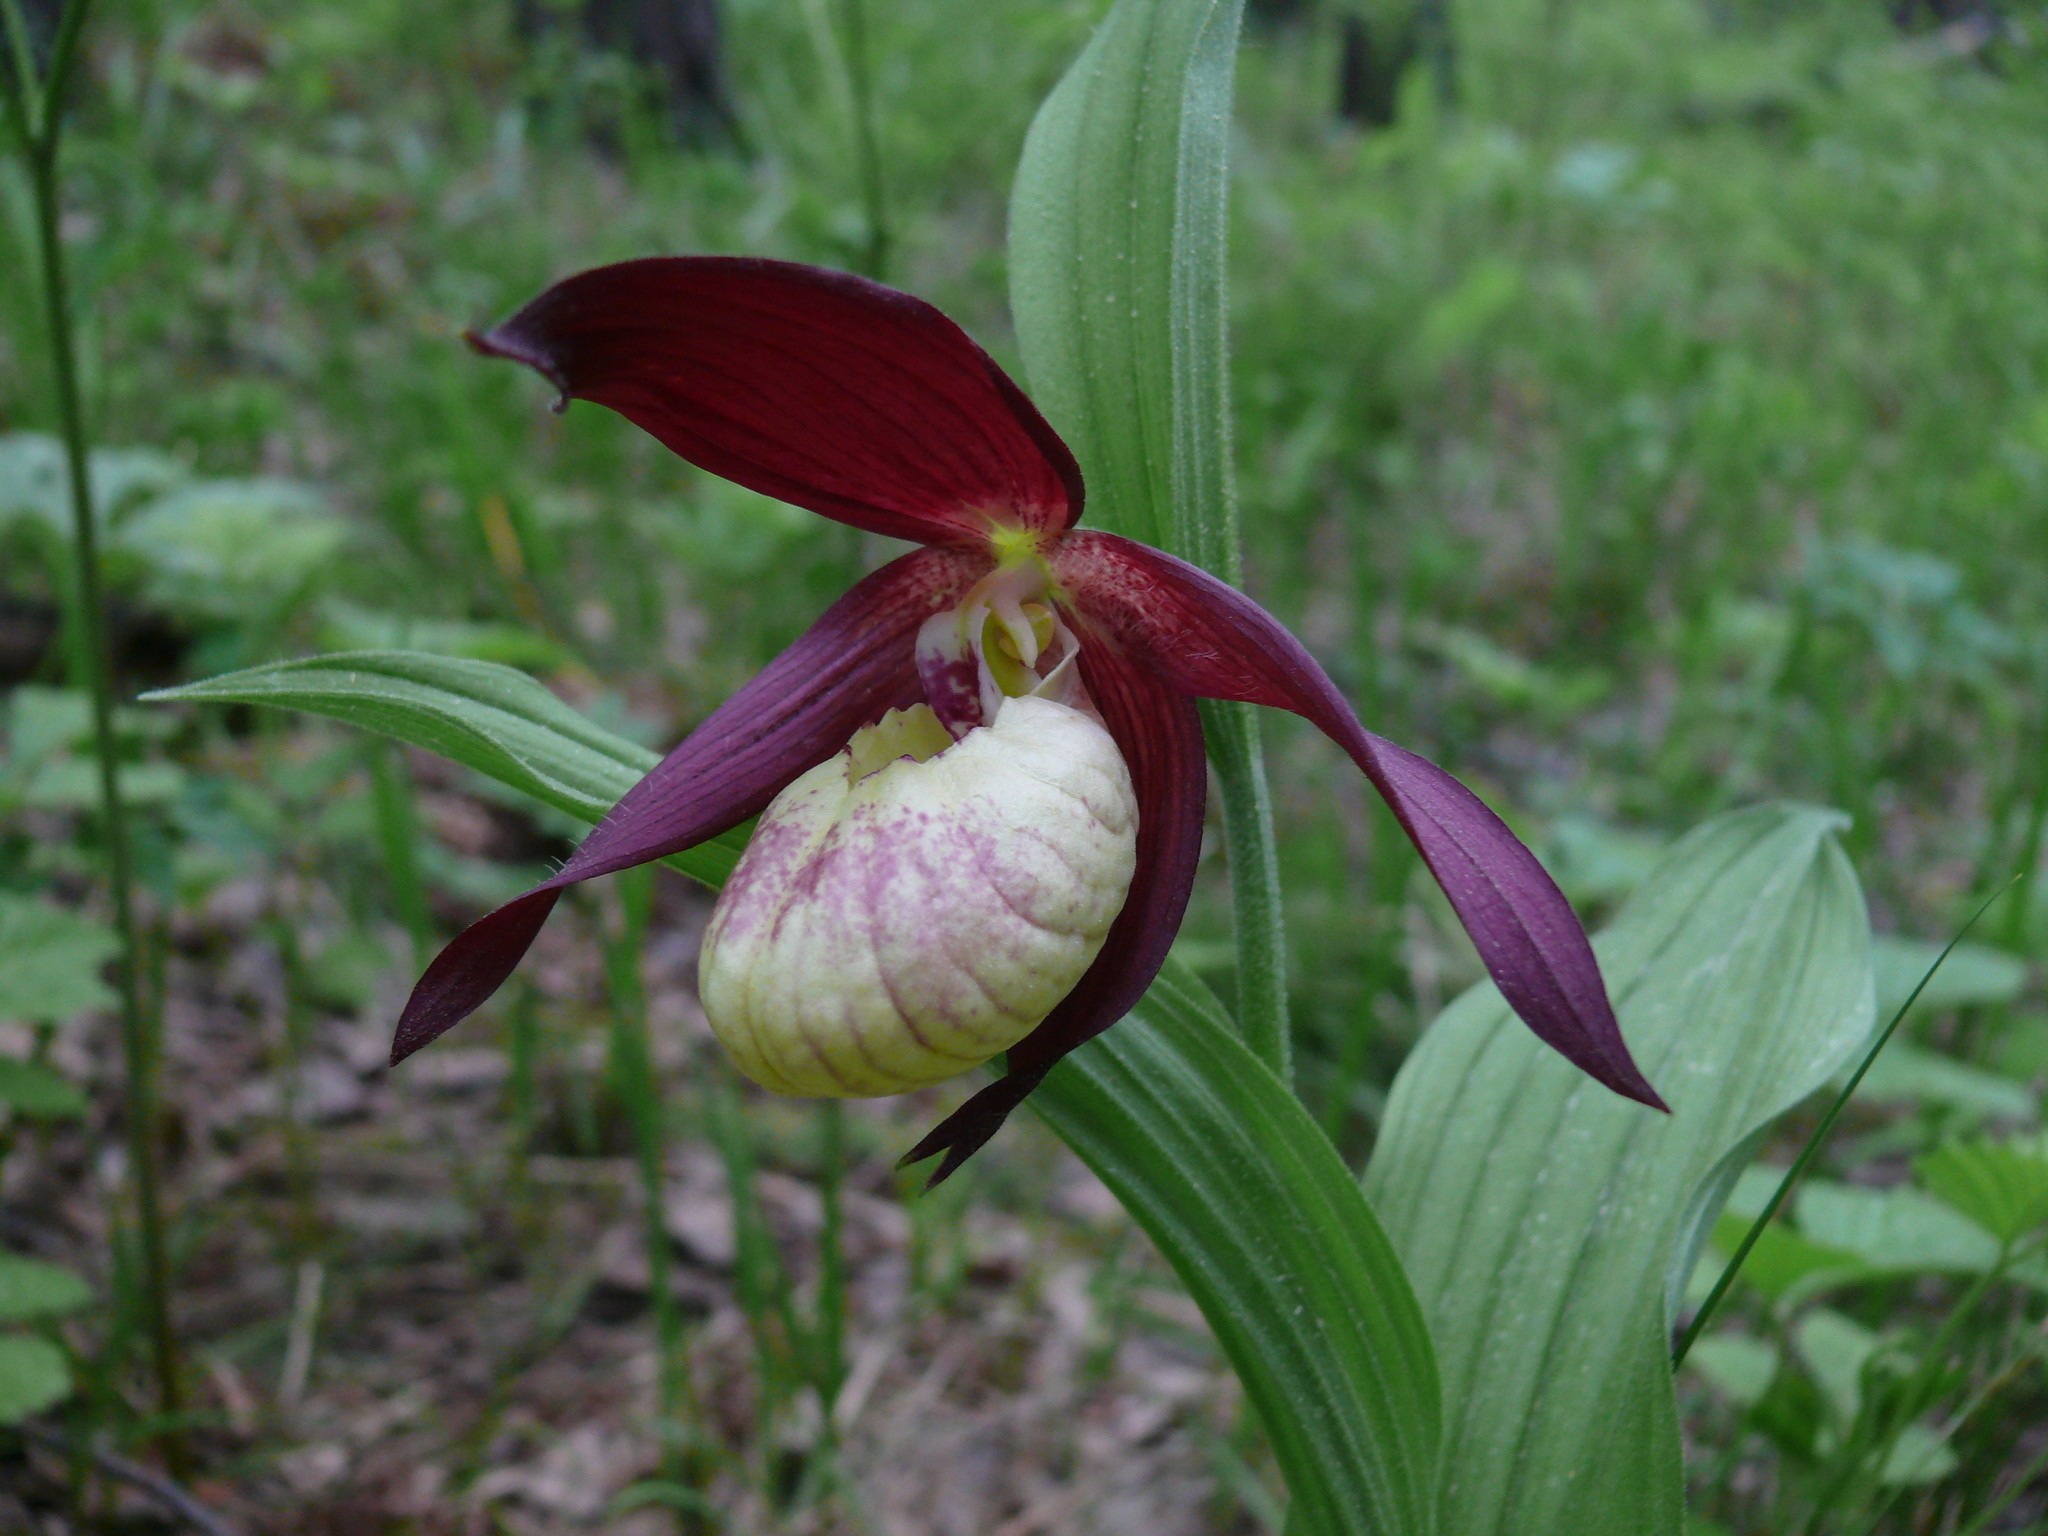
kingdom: Plantae
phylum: Tracheophyta
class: Liliopsida
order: Asparagales
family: Orchidaceae
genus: Cypripedium
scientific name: Cypripedium ventricosum
